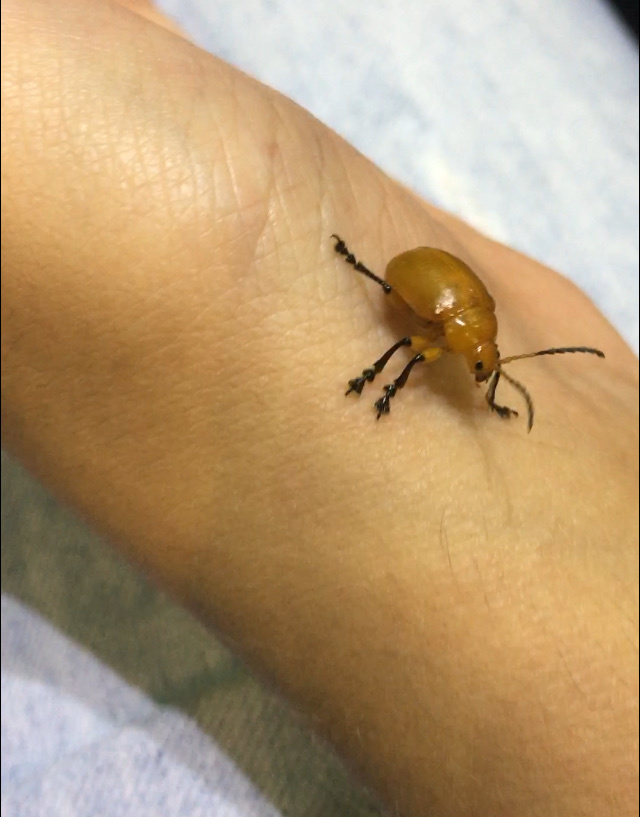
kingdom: Animalia
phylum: Arthropoda
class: Insecta
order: Coleoptera
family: Chrysomelidae
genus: Crimissa
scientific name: Crimissa cruralis
